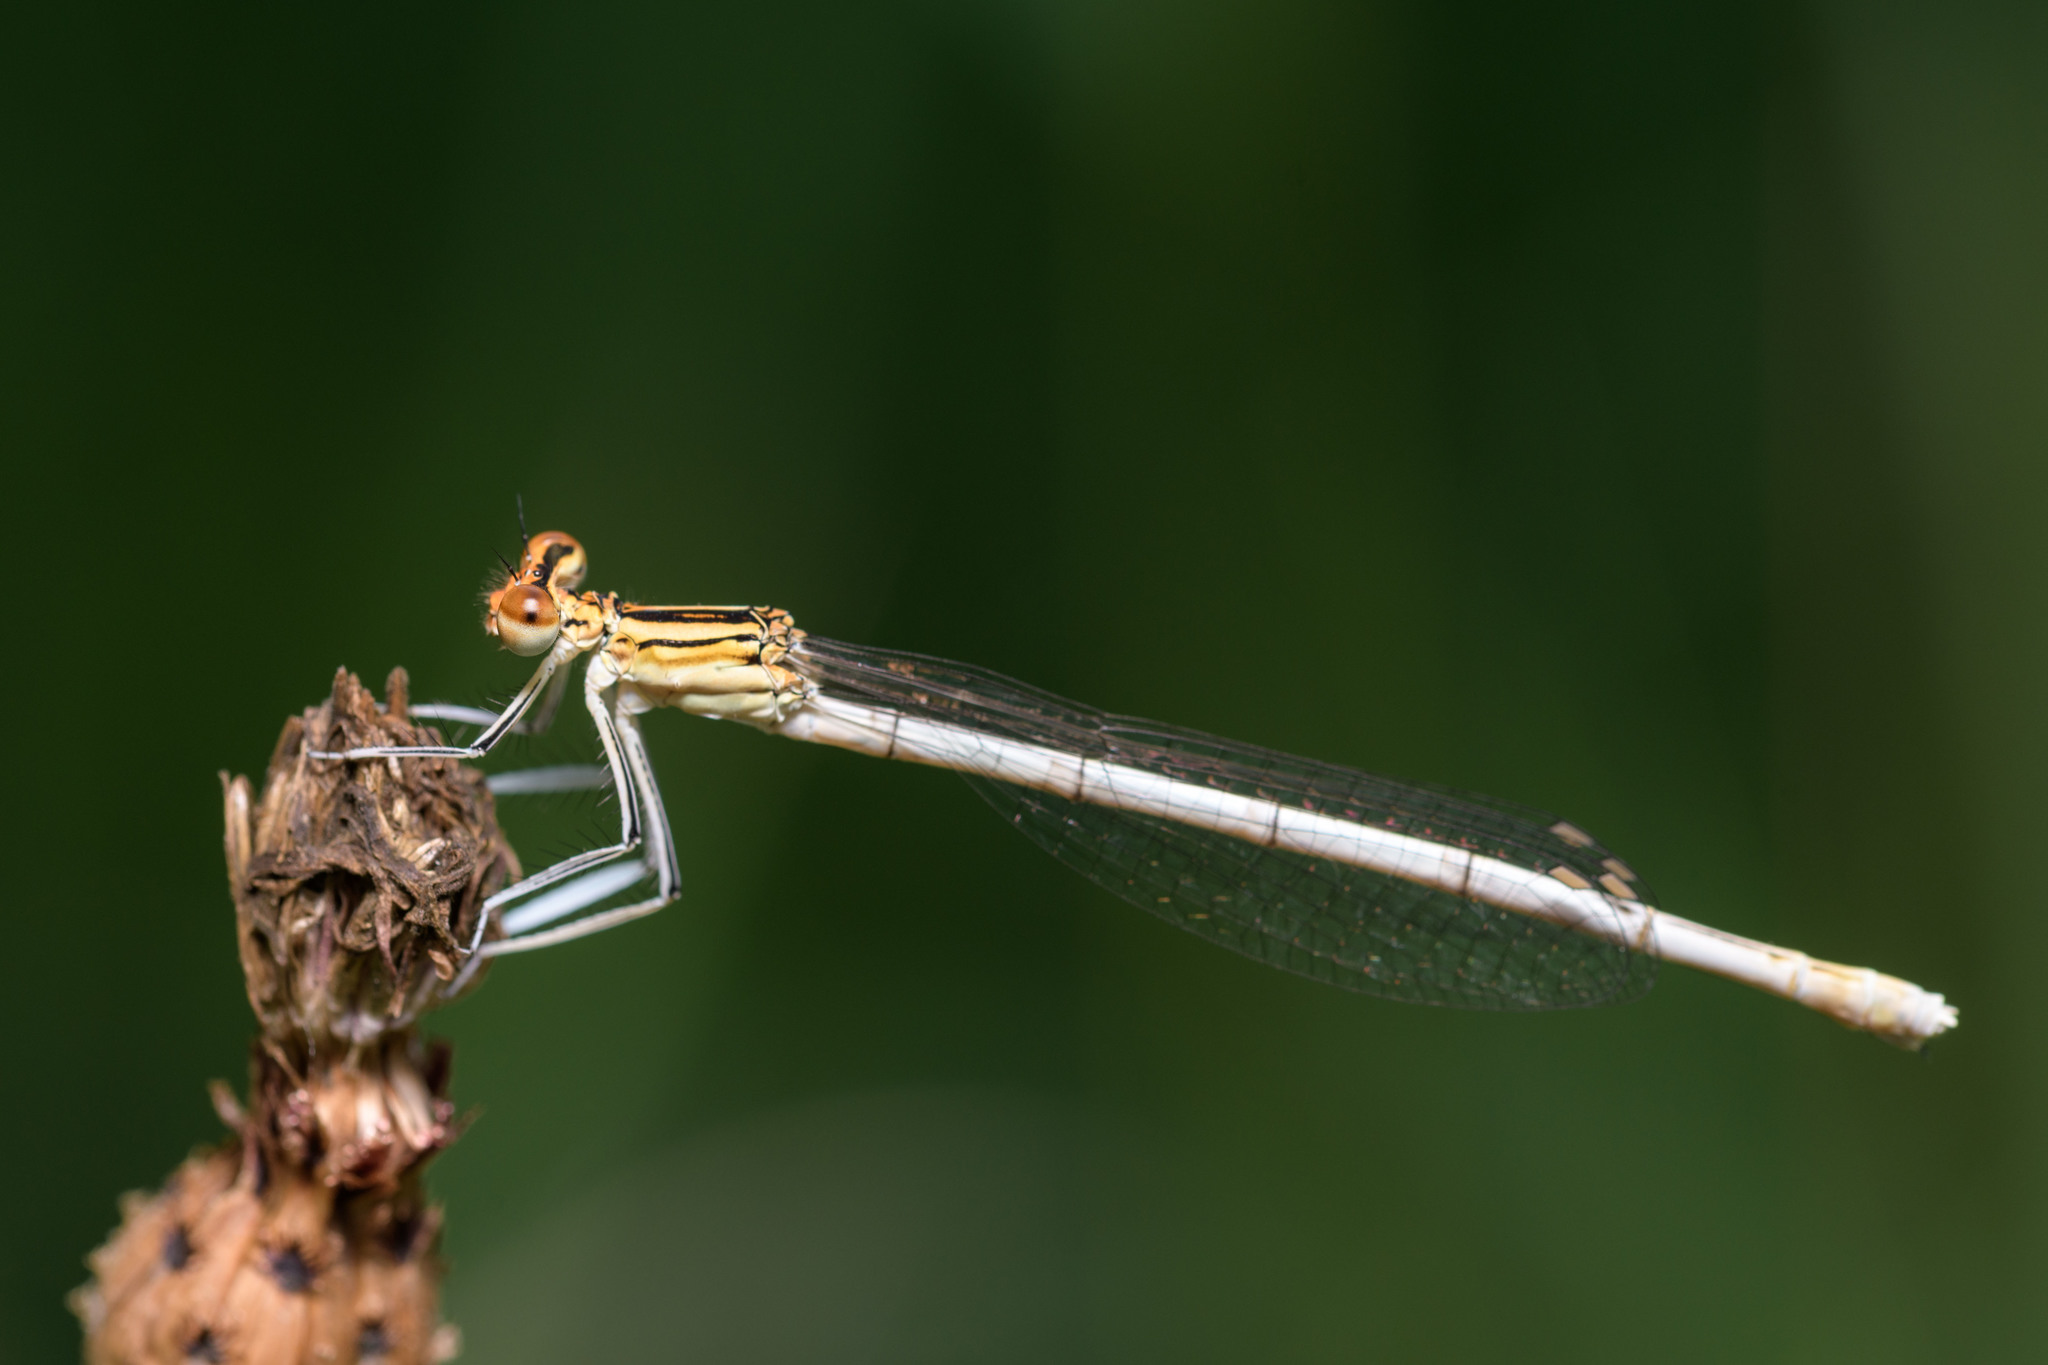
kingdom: Animalia
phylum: Arthropoda
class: Insecta
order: Odonata
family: Platycnemididae
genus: Platycnemis
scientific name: Platycnemis pennipes
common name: White-legged damselfly
